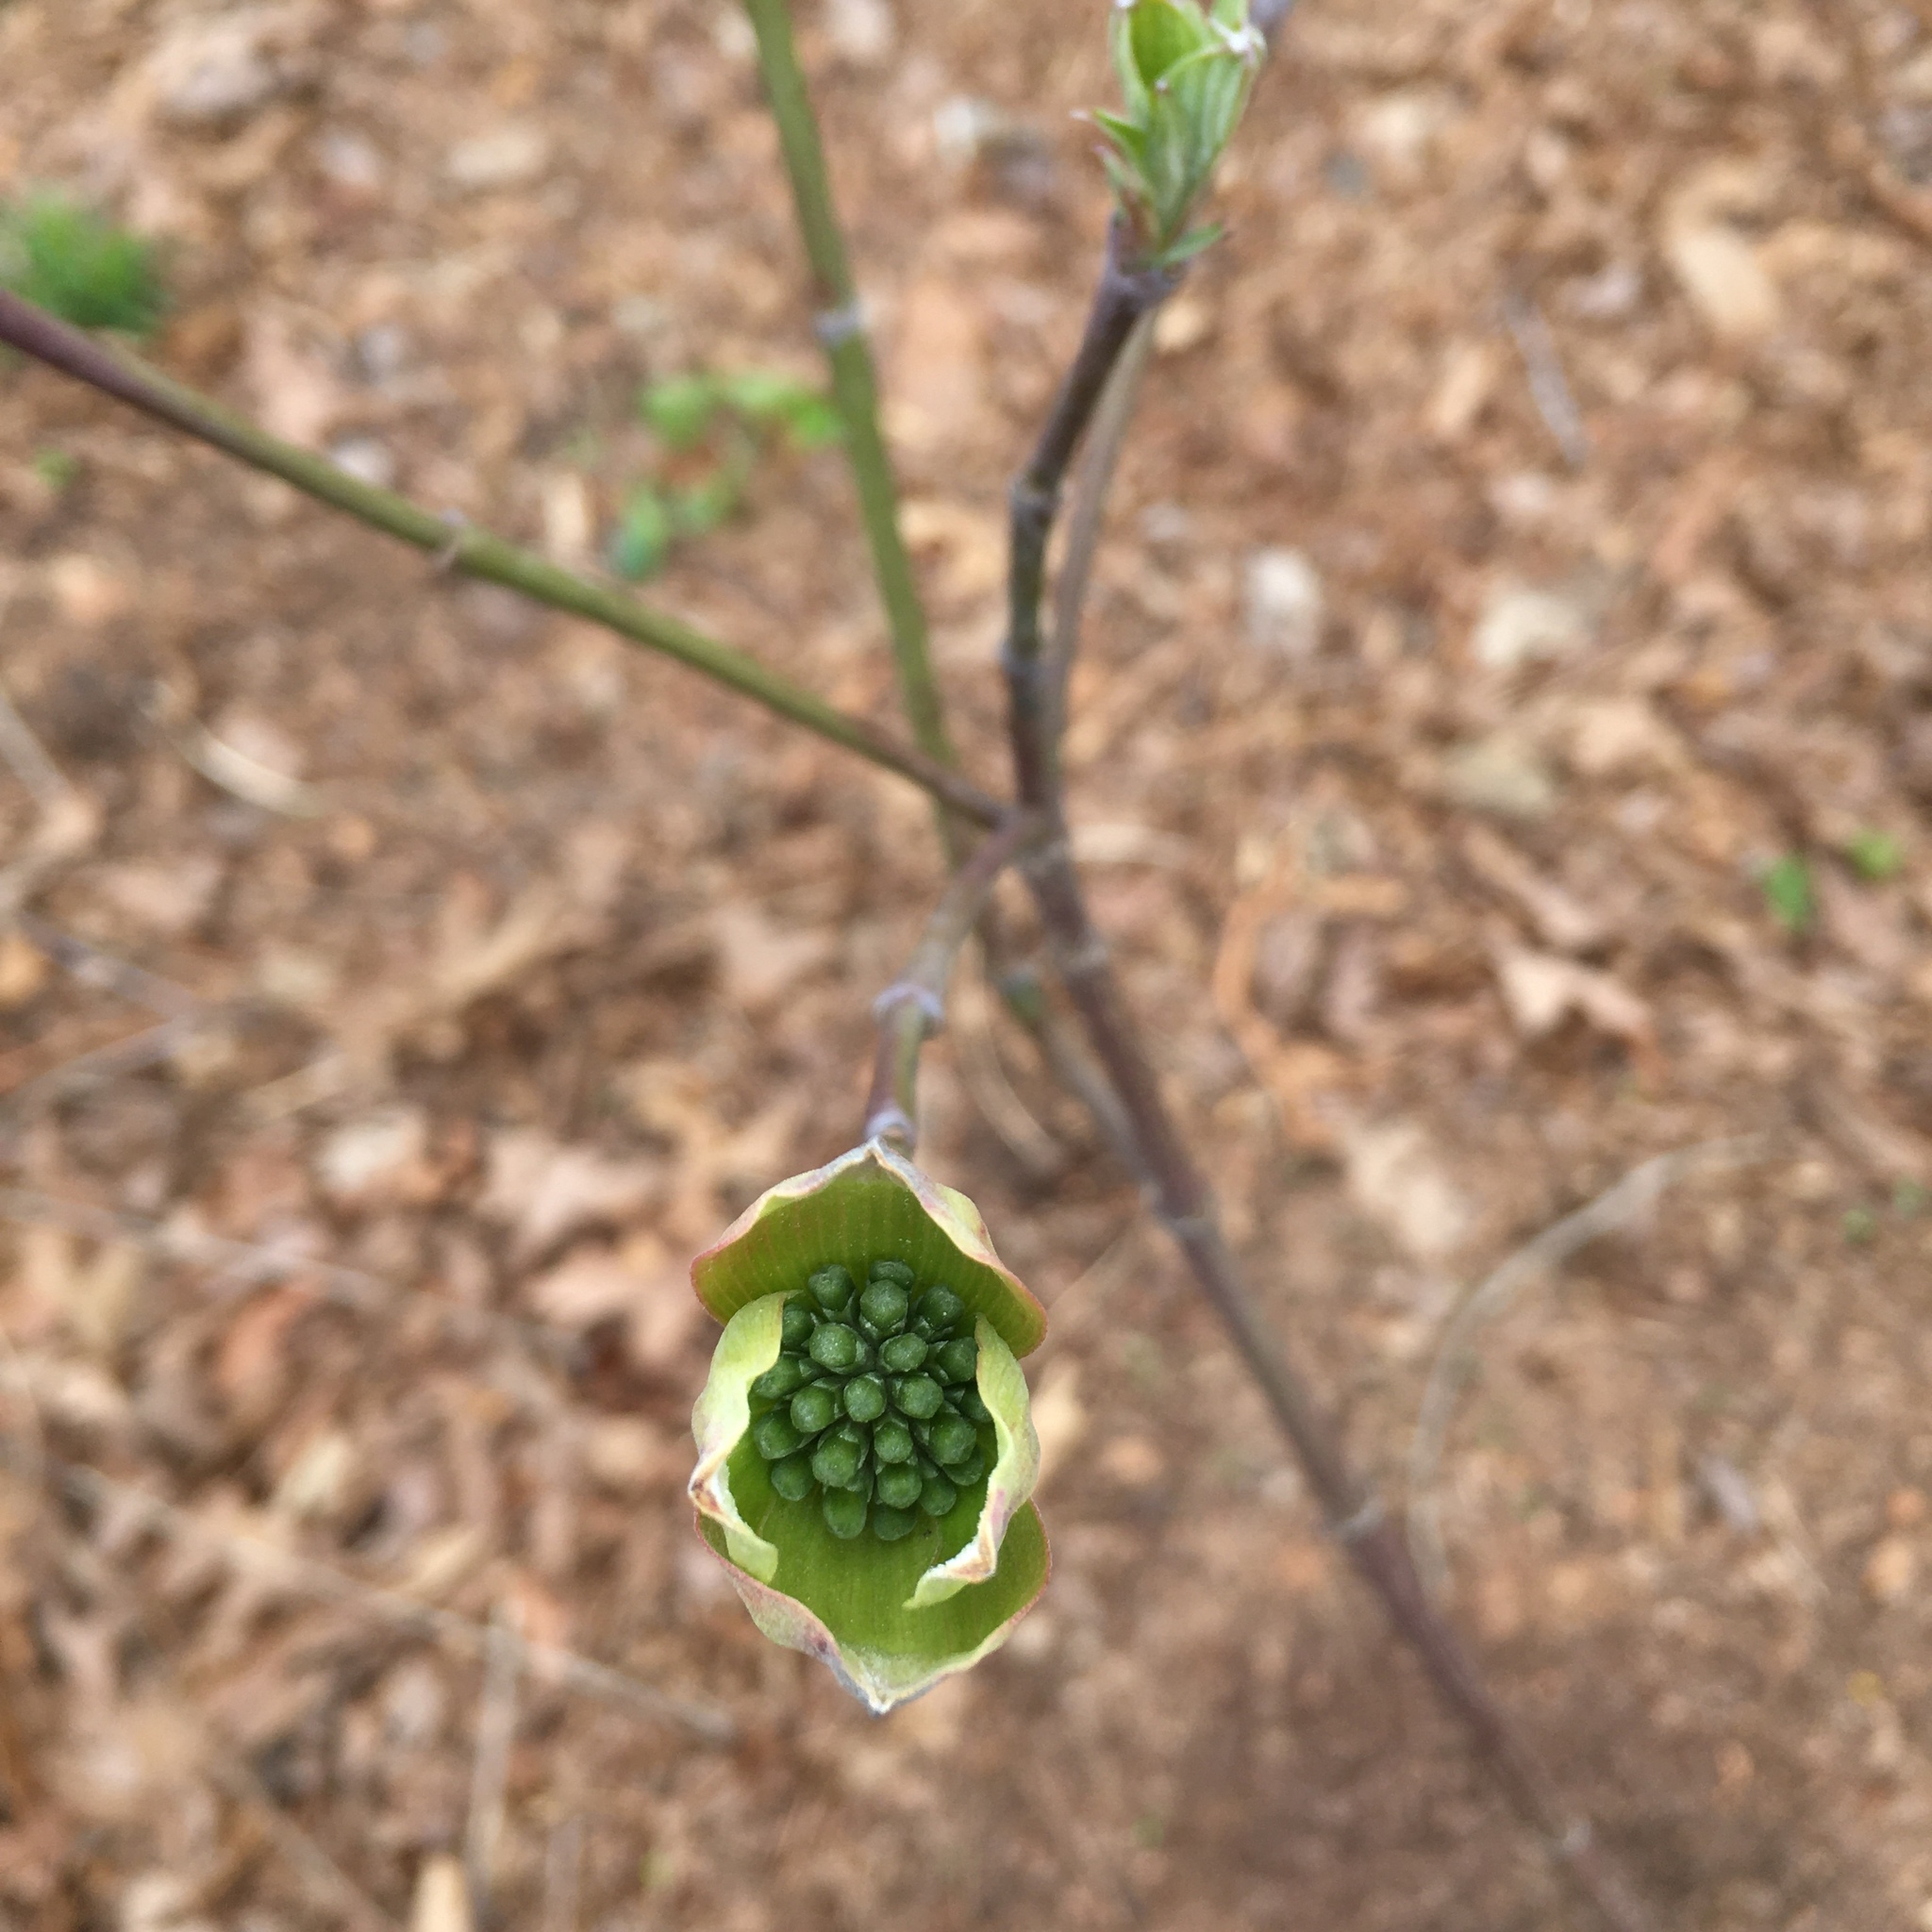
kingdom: Plantae
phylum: Tracheophyta
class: Magnoliopsida
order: Cornales
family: Cornaceae
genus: Cornus
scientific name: Cornus florida
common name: Flowering dogwood
